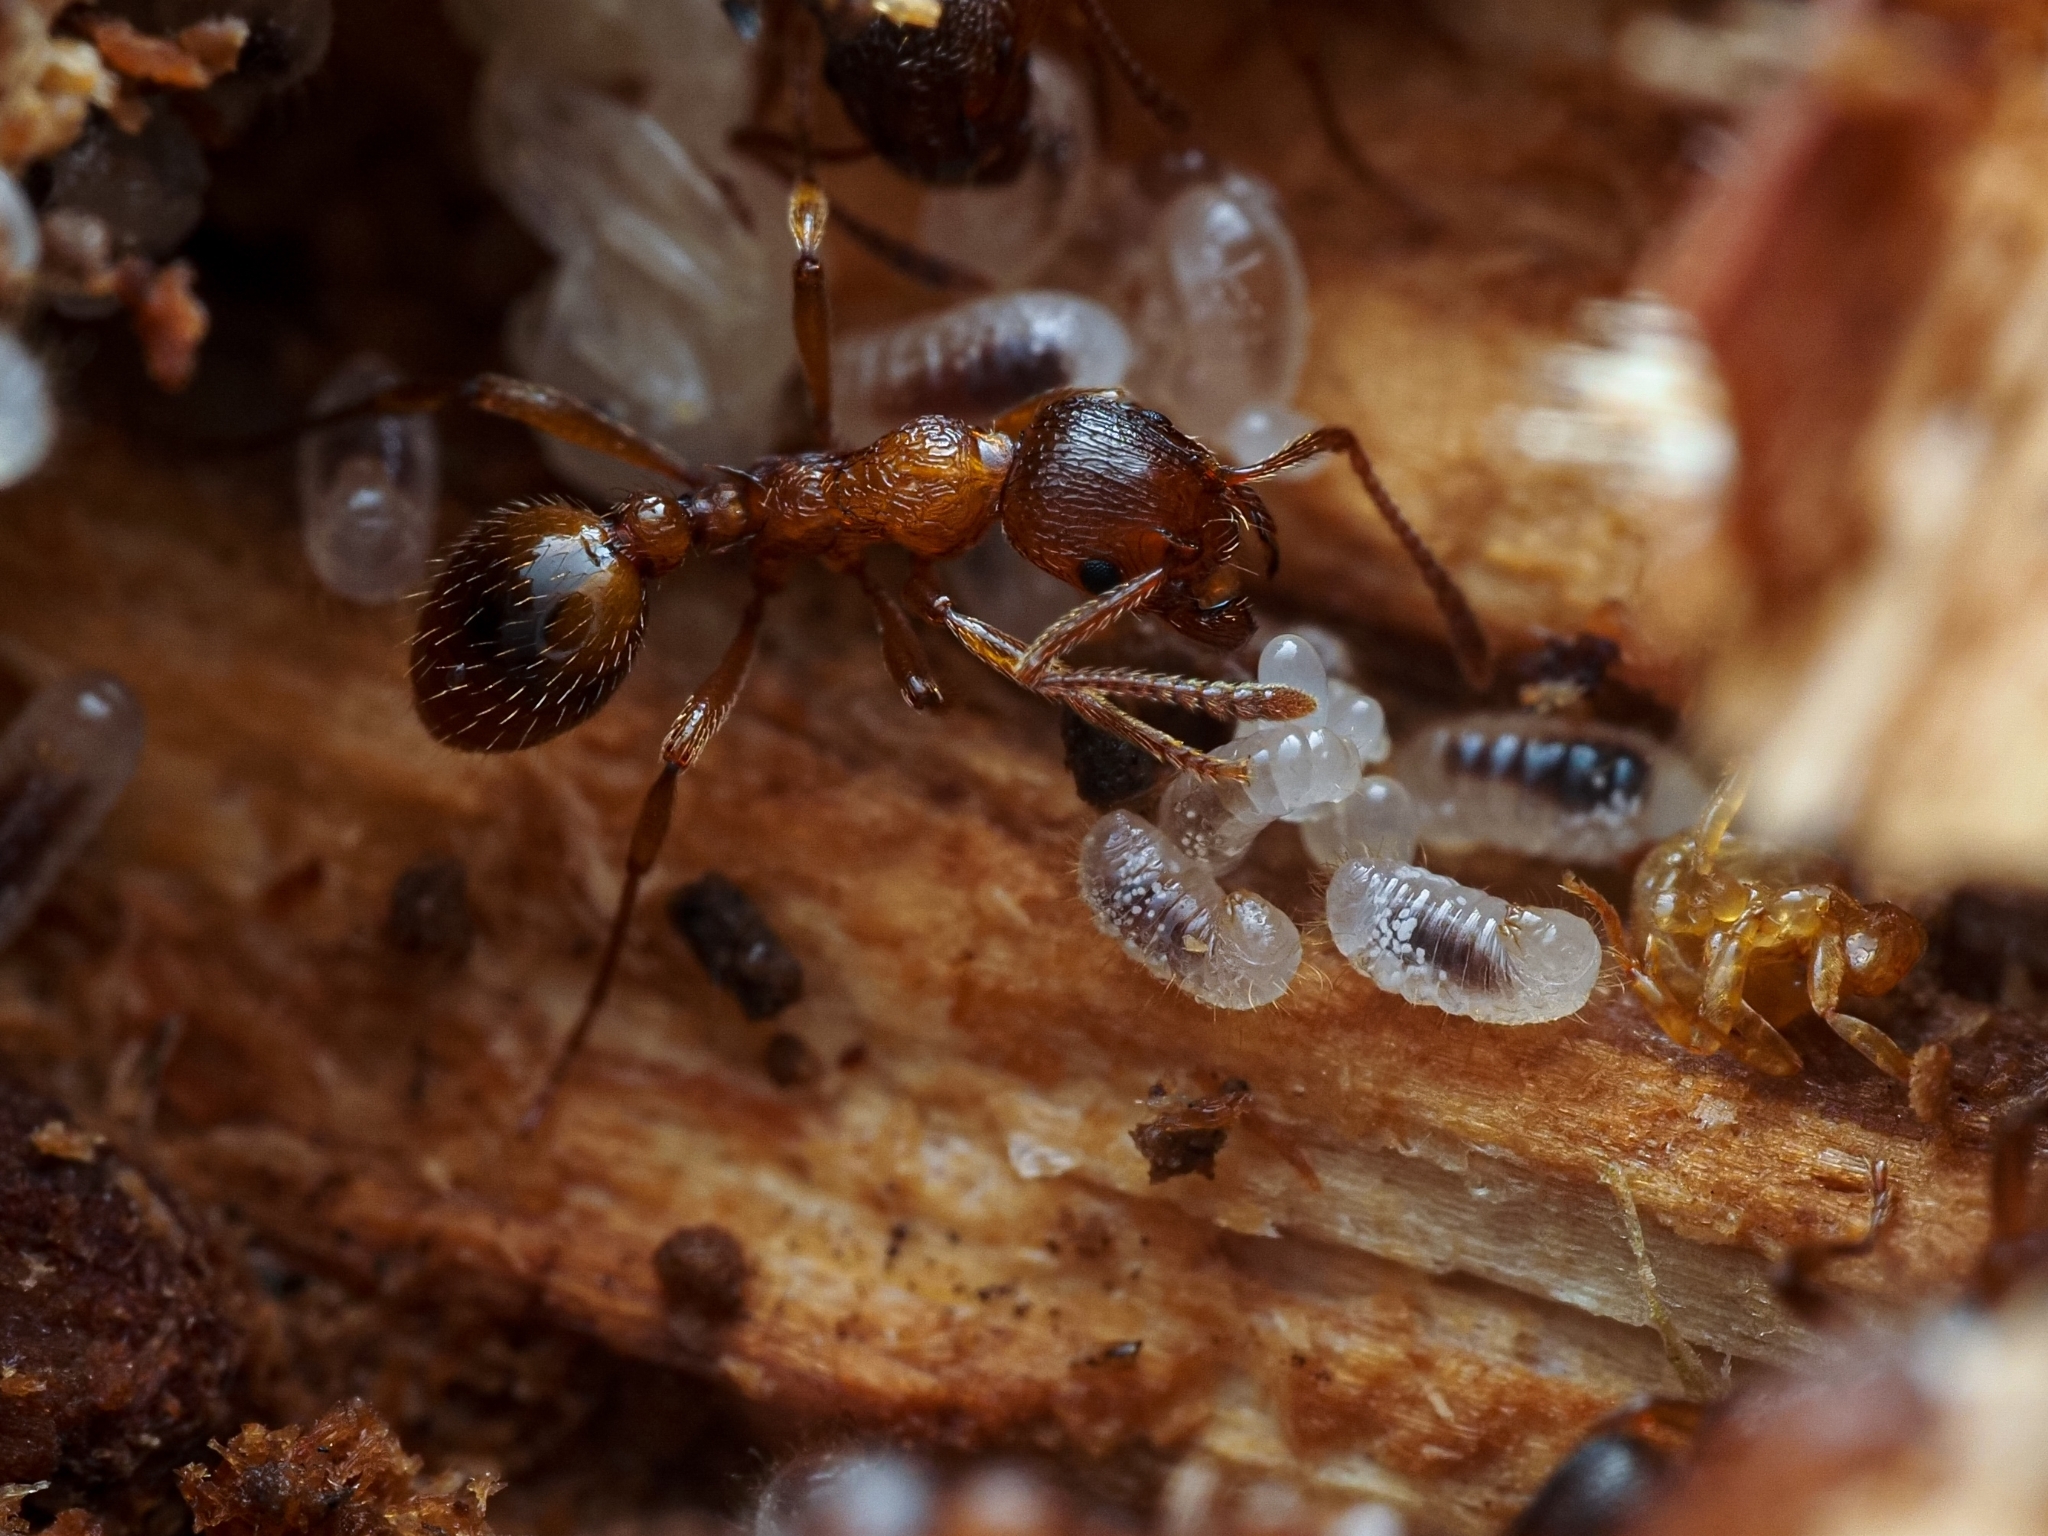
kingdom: Animalia
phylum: Arthropoda
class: Insecta
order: Hymenoptera
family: Formicidae
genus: Myrmica
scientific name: Myrmica rubra
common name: European fire ant
